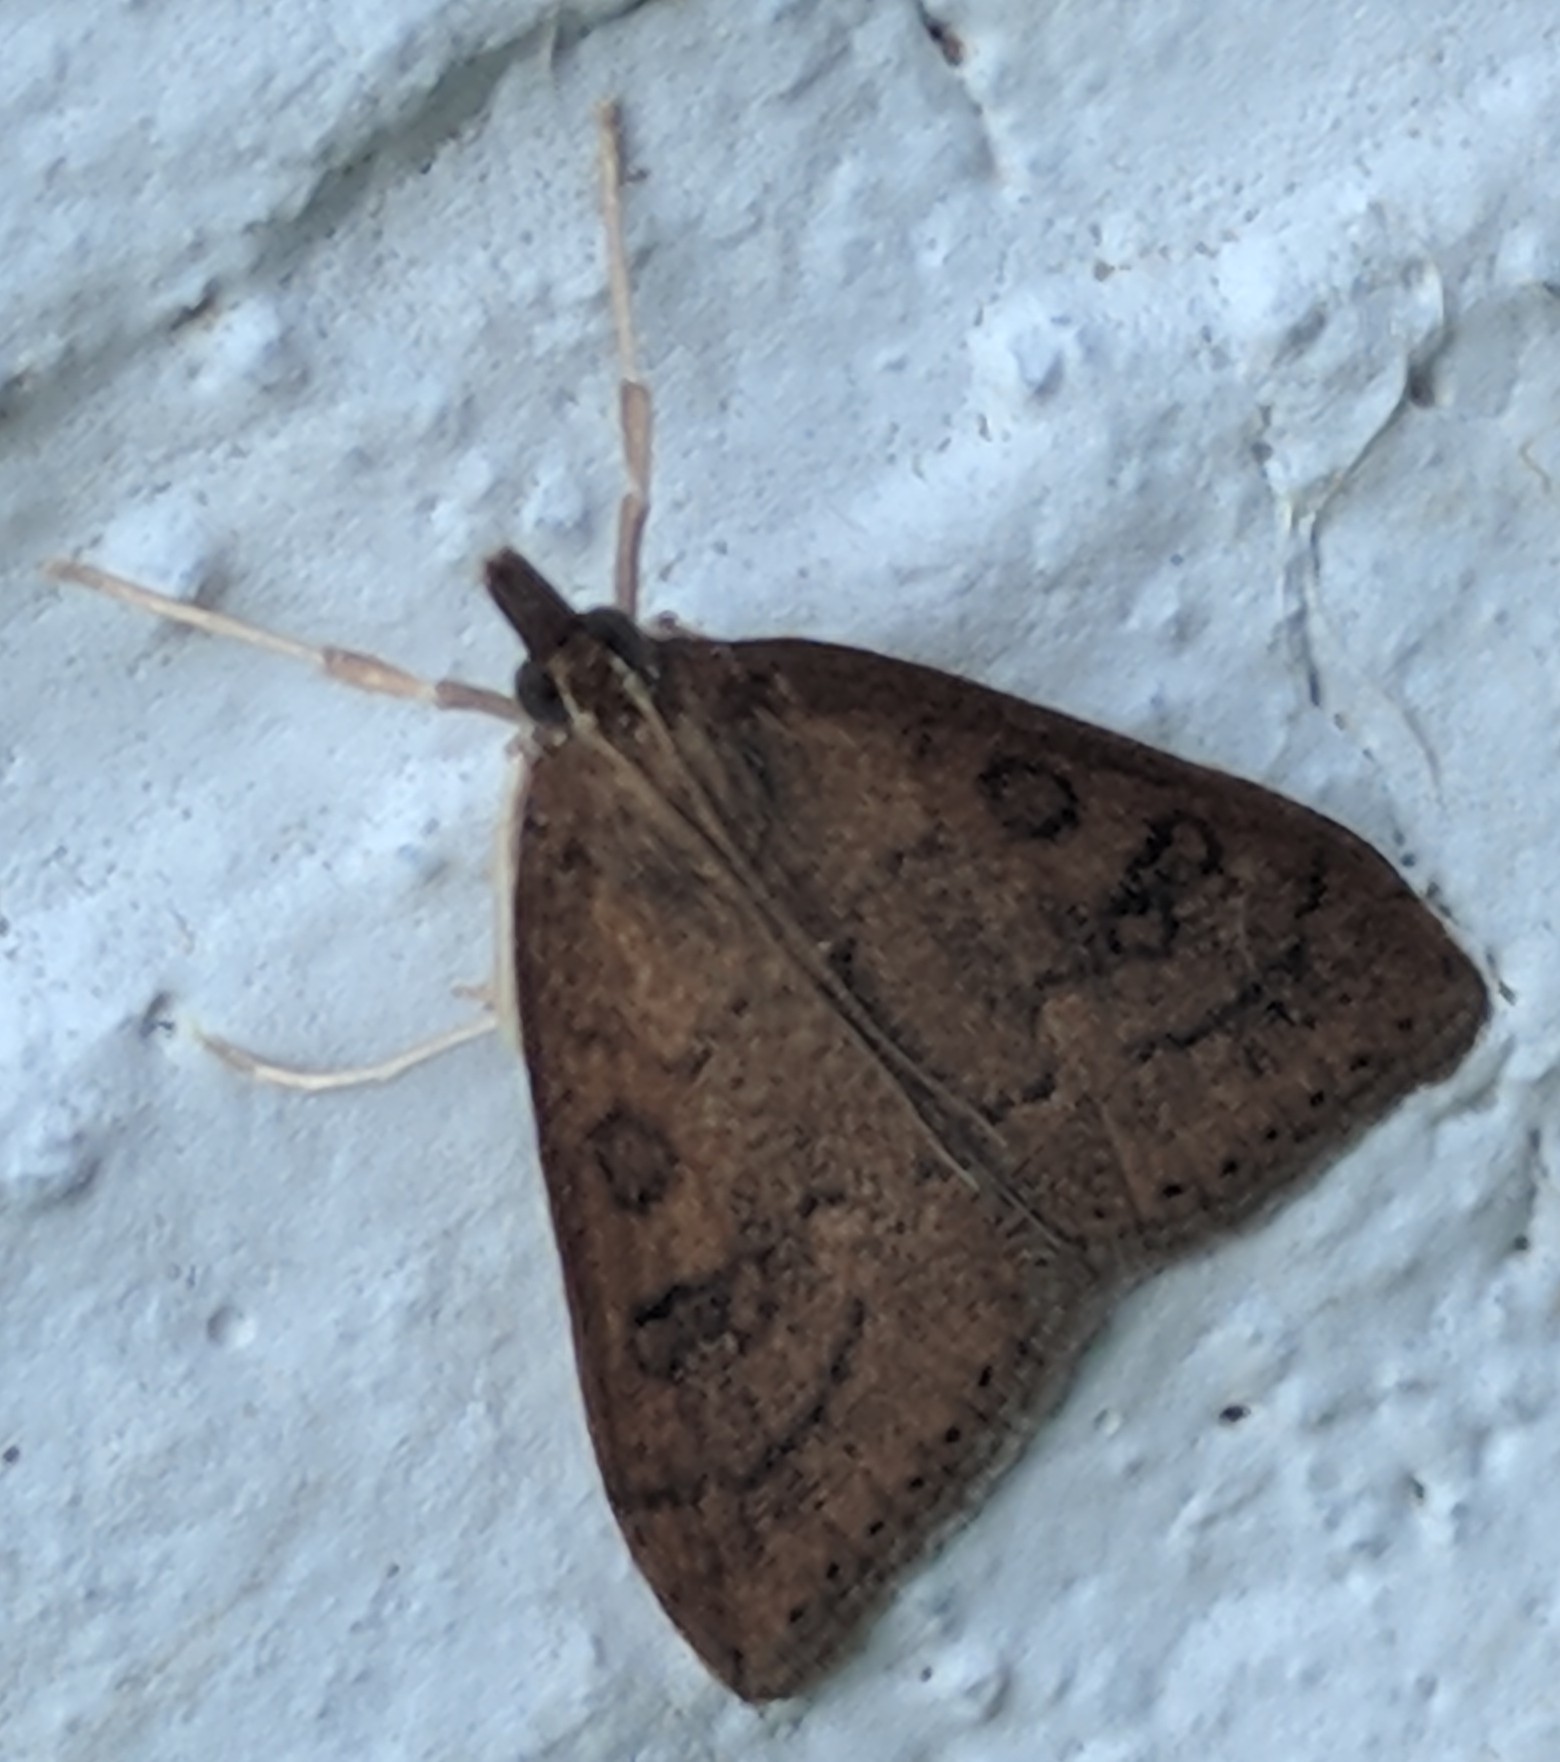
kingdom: Animalia
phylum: Arthropoda
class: Insecta
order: Lepidoptera
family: Crambidae
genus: Udea
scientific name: Udea rubigalis
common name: Celery leaftier moth
